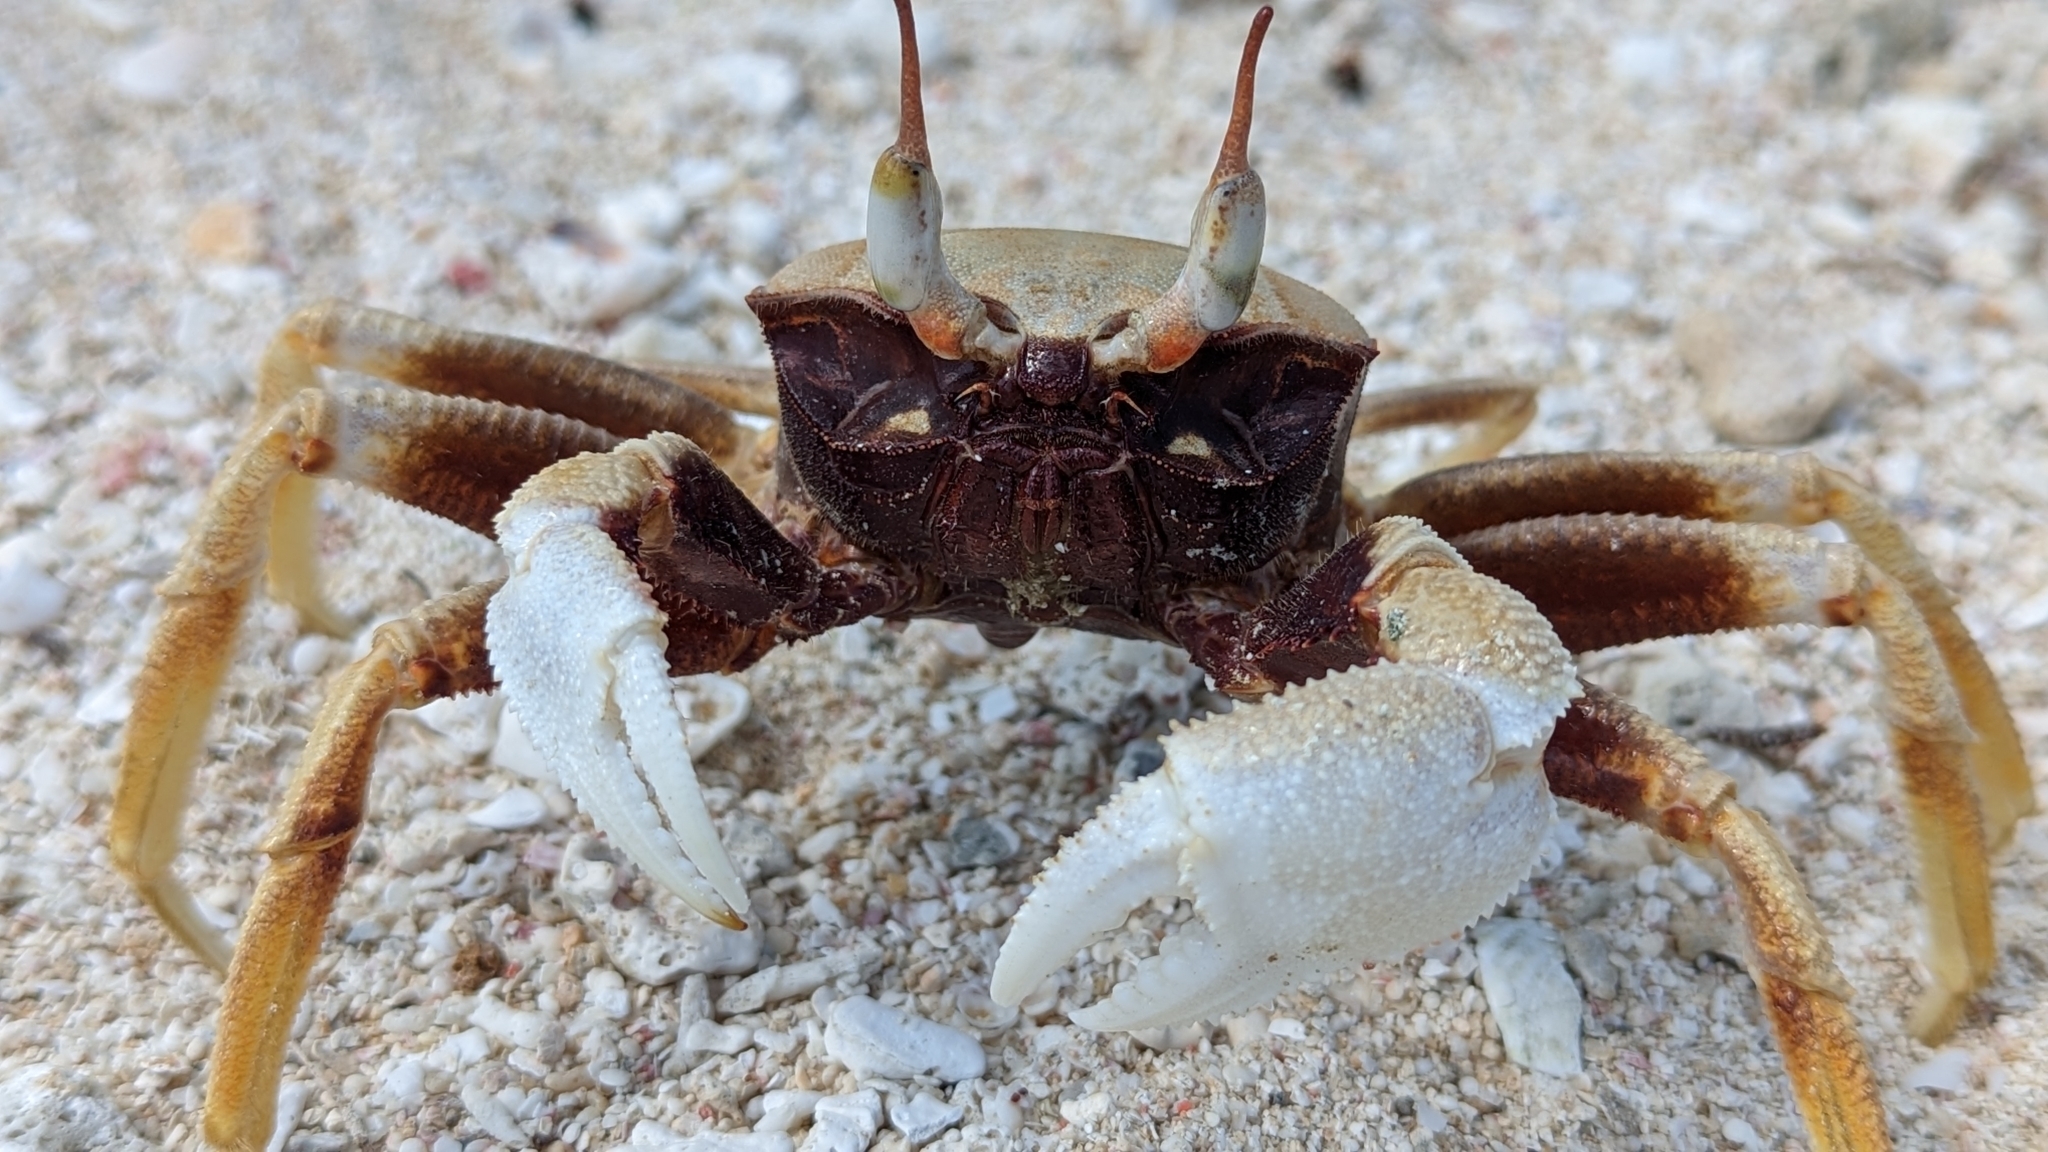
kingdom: Animalia
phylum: Arthropoda
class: Malacostraca
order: Decapoda
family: Ocypodidae
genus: Ocypode
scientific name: Ocypode ceratophthalmus
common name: Indo-pacific ghost crab
